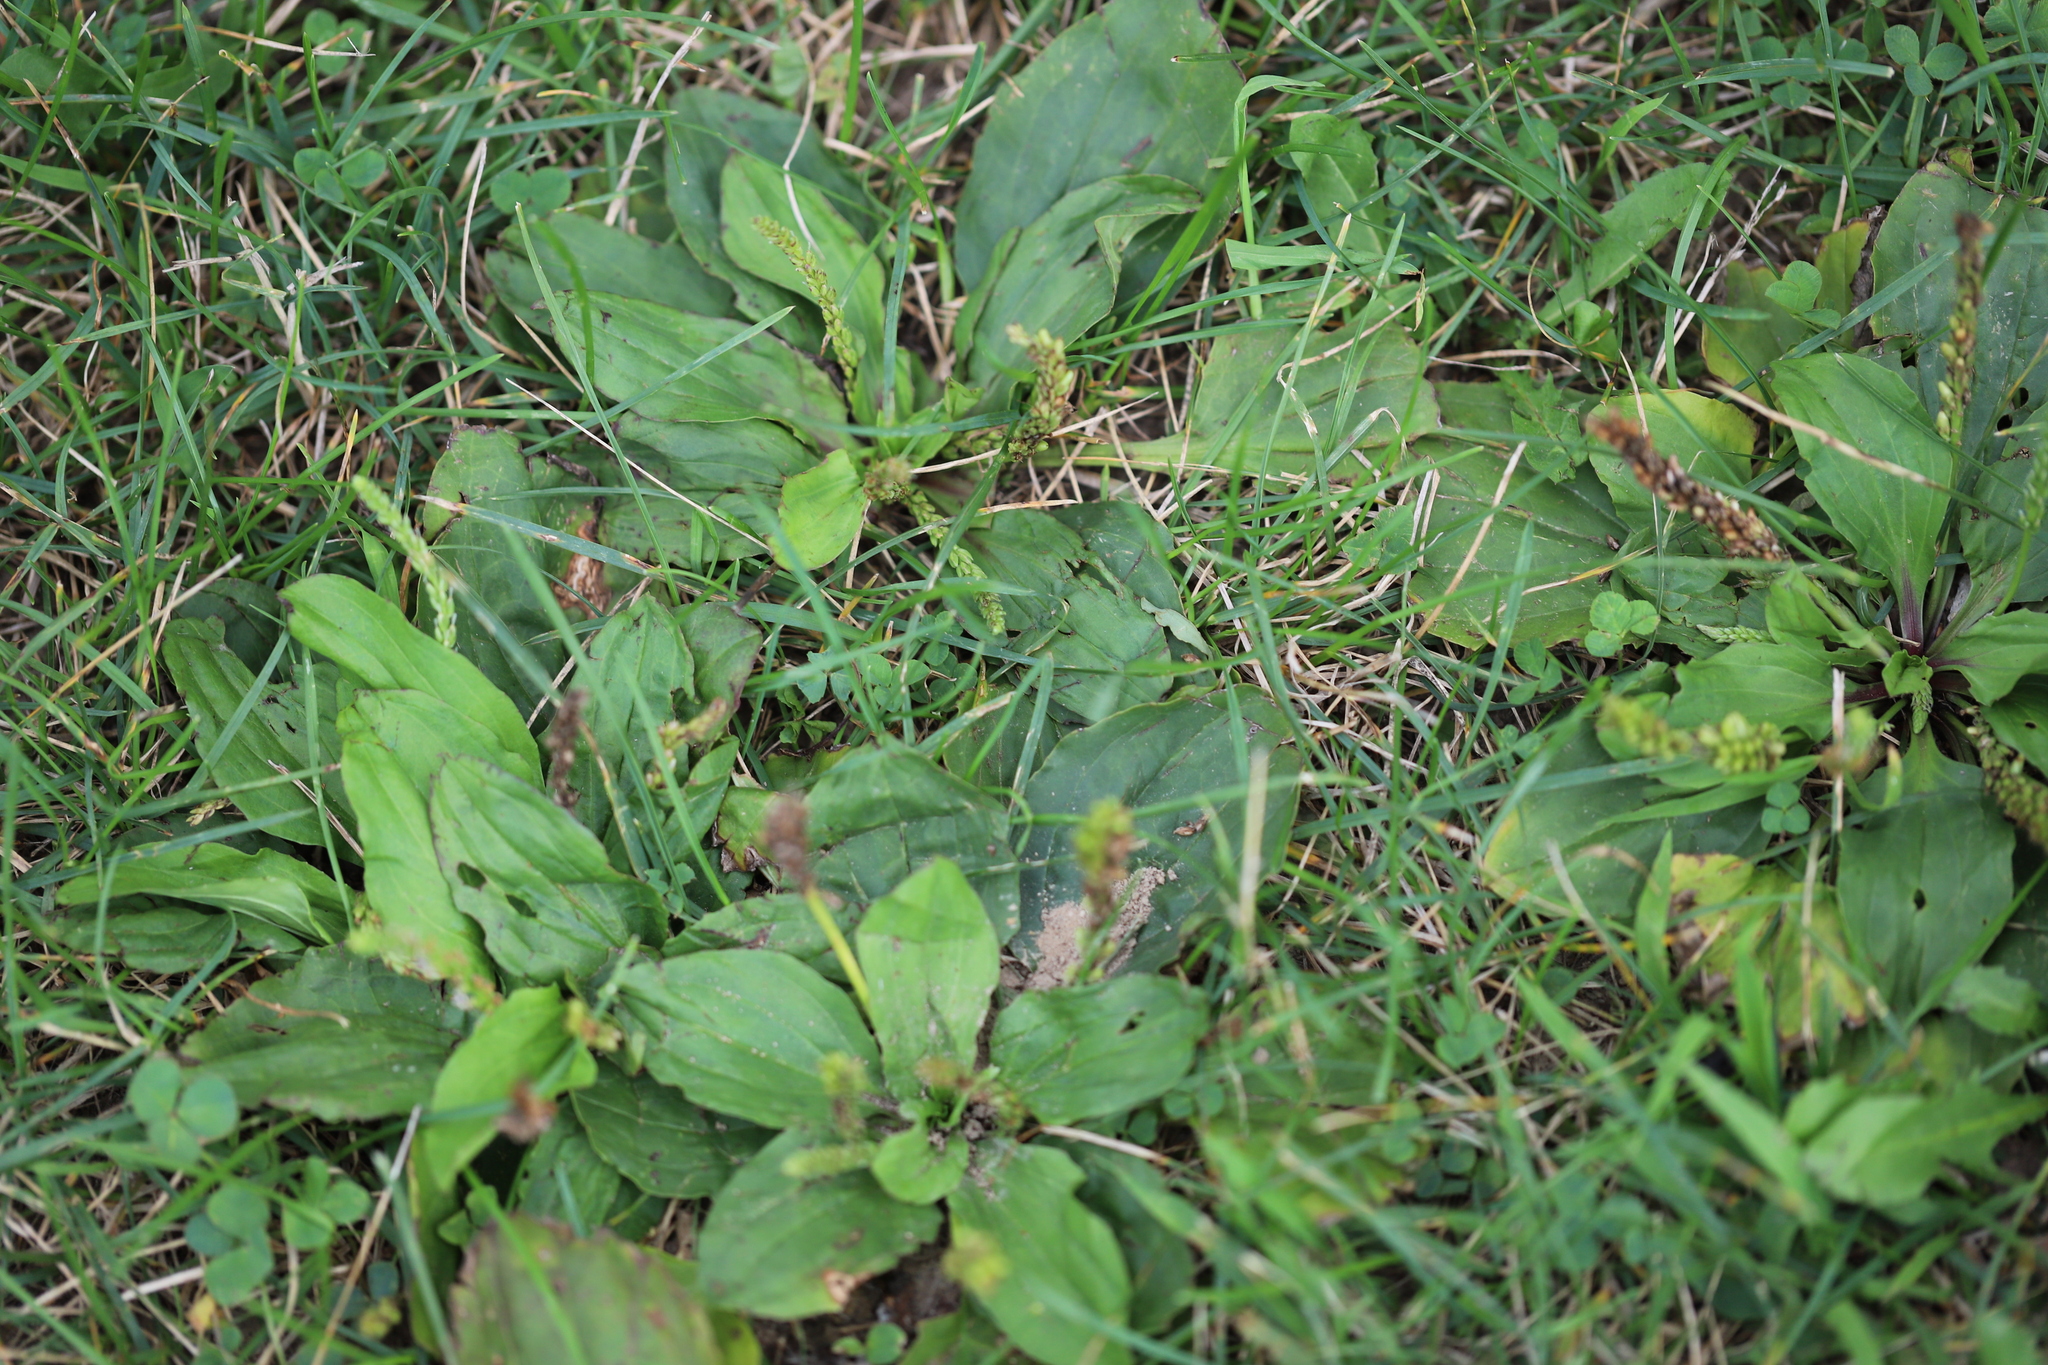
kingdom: Plantae
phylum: Tracheophyta
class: Magnoliopsida
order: Lamiales
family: Plantaginaceae
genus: Plantago
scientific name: Plantago rugelii
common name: American plantain
